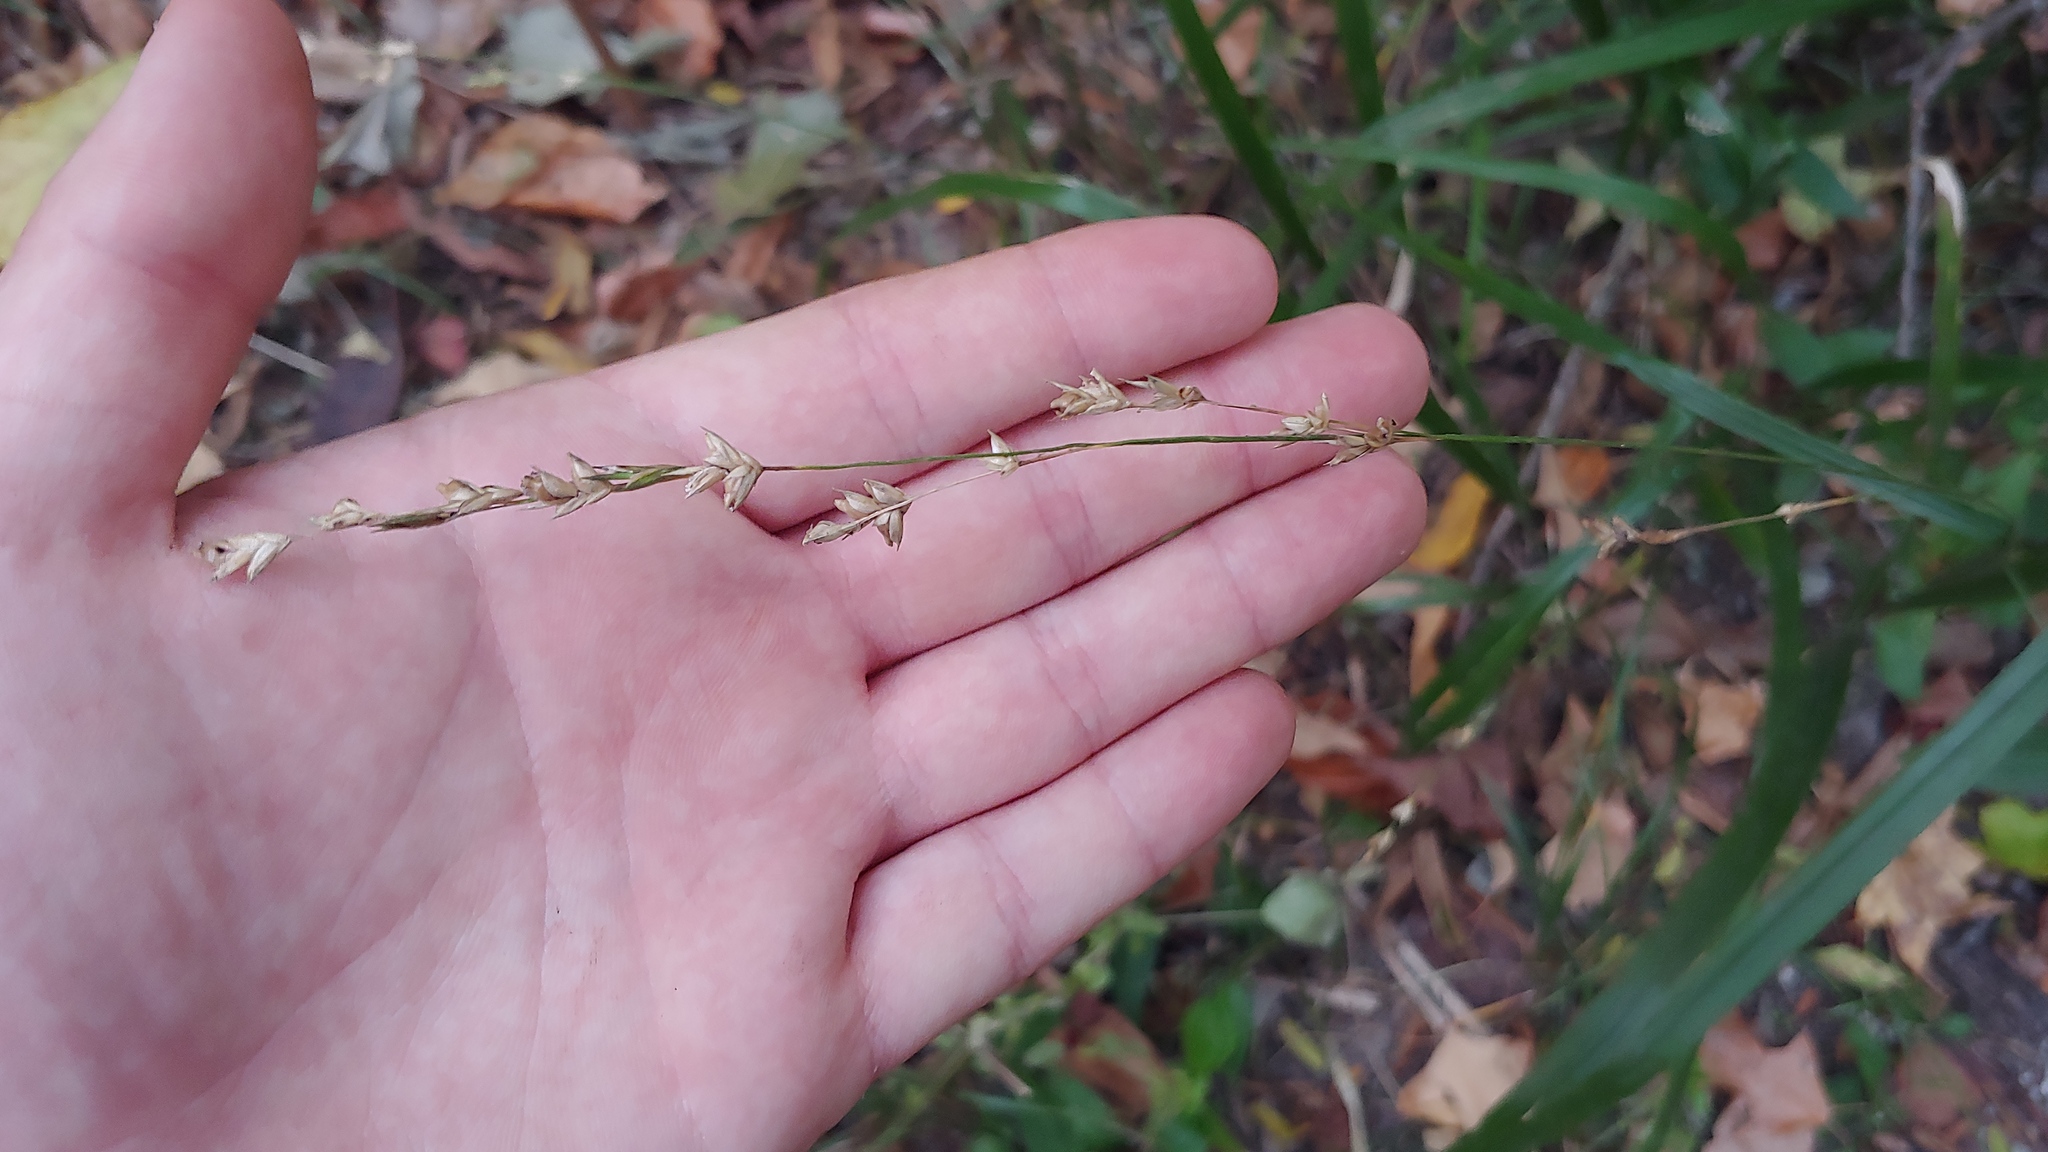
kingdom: Plantae
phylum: Tracheophyta
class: Liliopsida
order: Poales
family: Poaceae
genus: Diarrhena
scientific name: Diarrhena obovata
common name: Beakgrass
